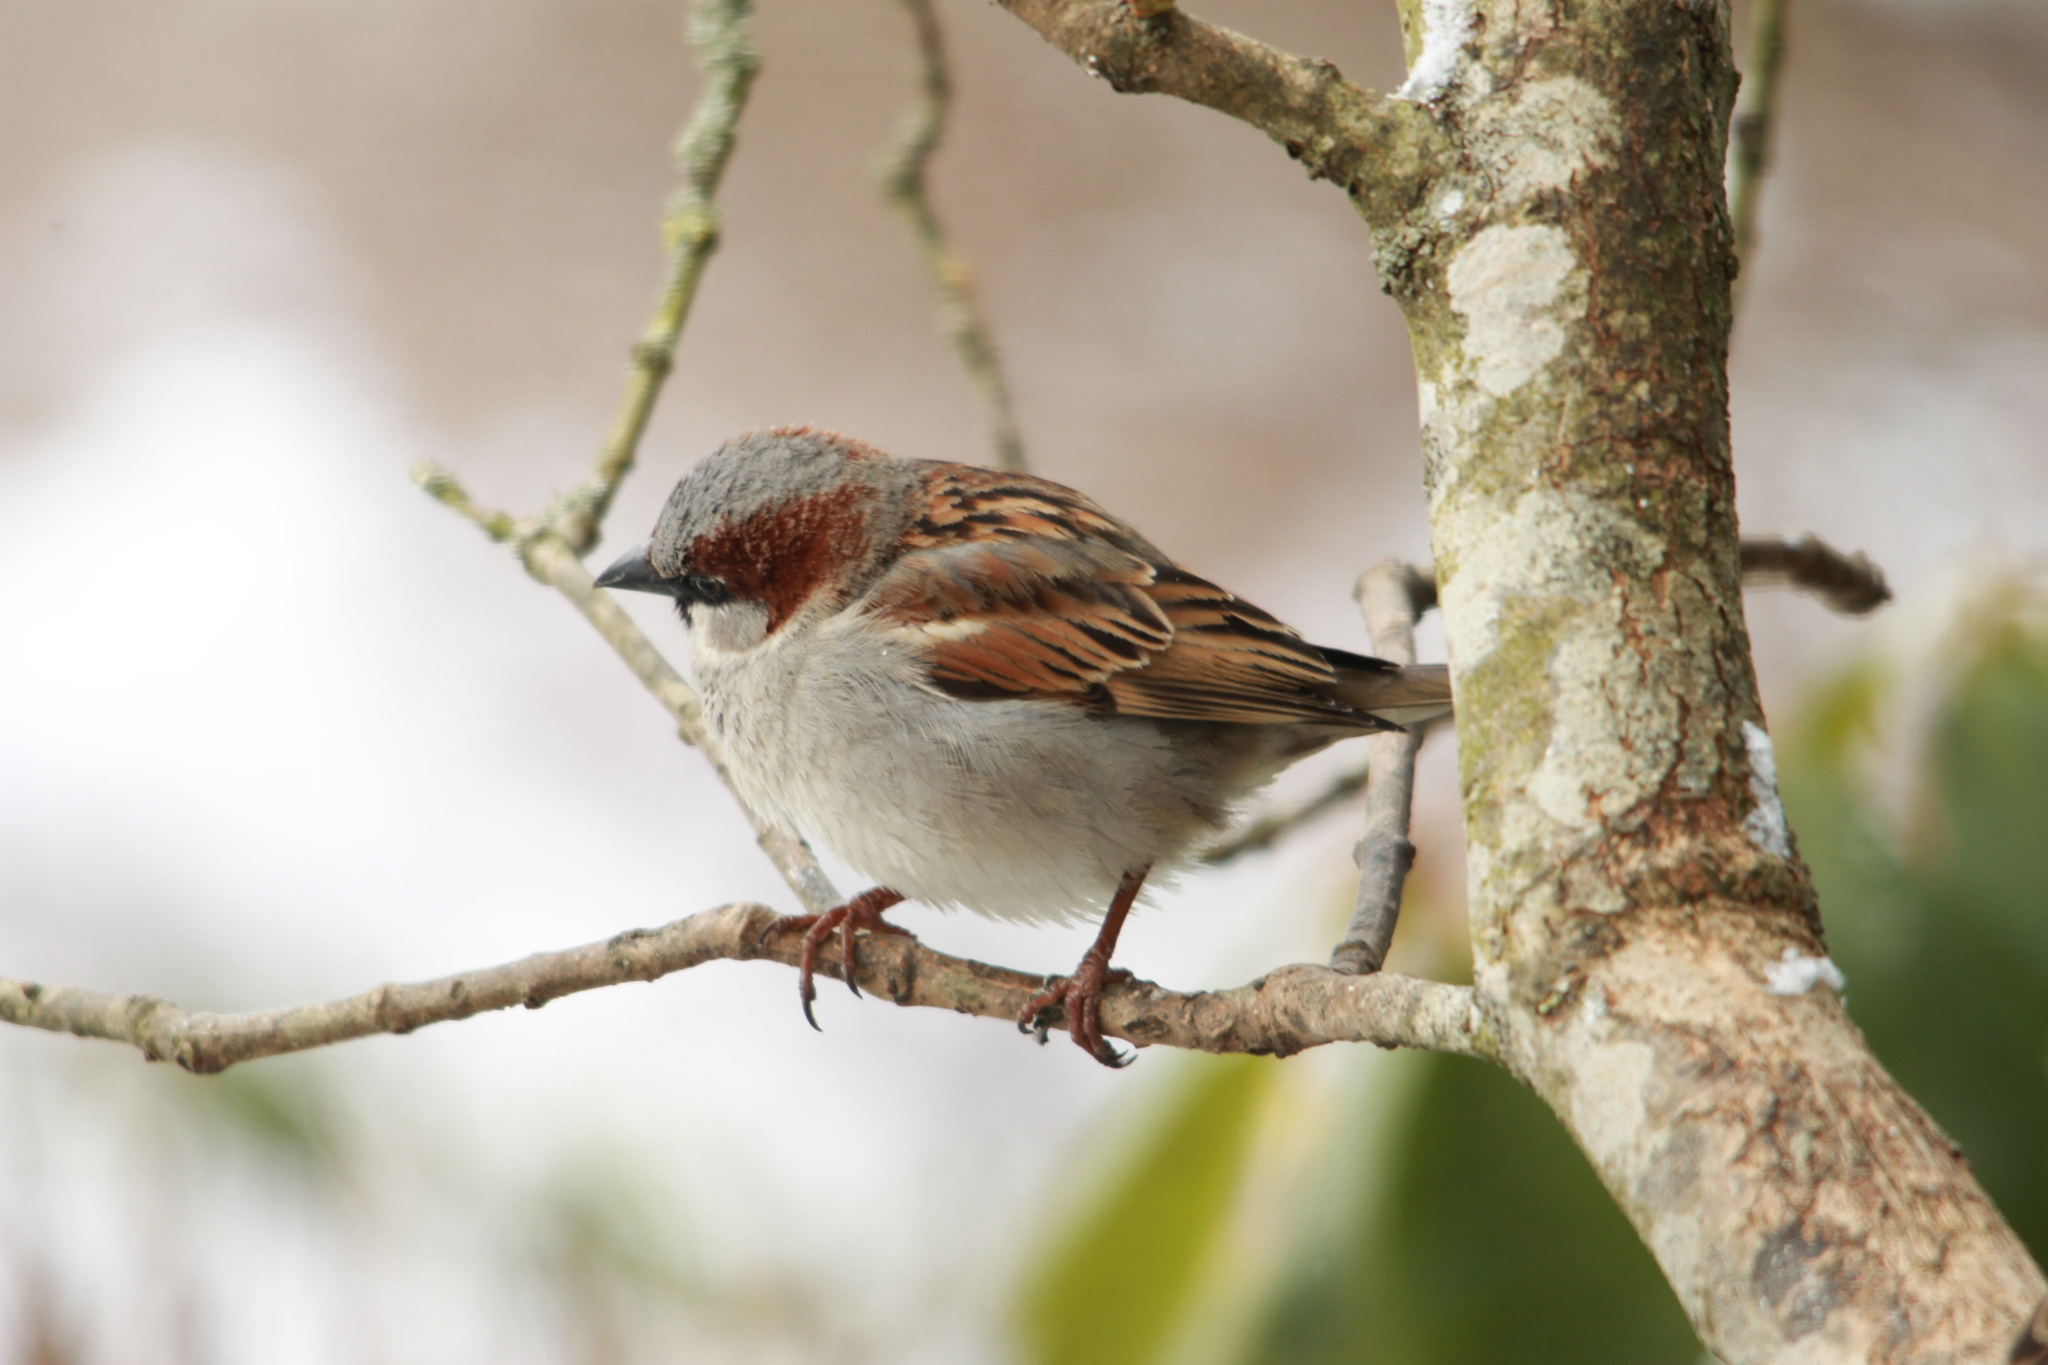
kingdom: Animalia
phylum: Chordata
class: Aves
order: Passeriformes
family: Passeridae
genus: Passer
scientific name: Passer domesticus
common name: House sparrow
